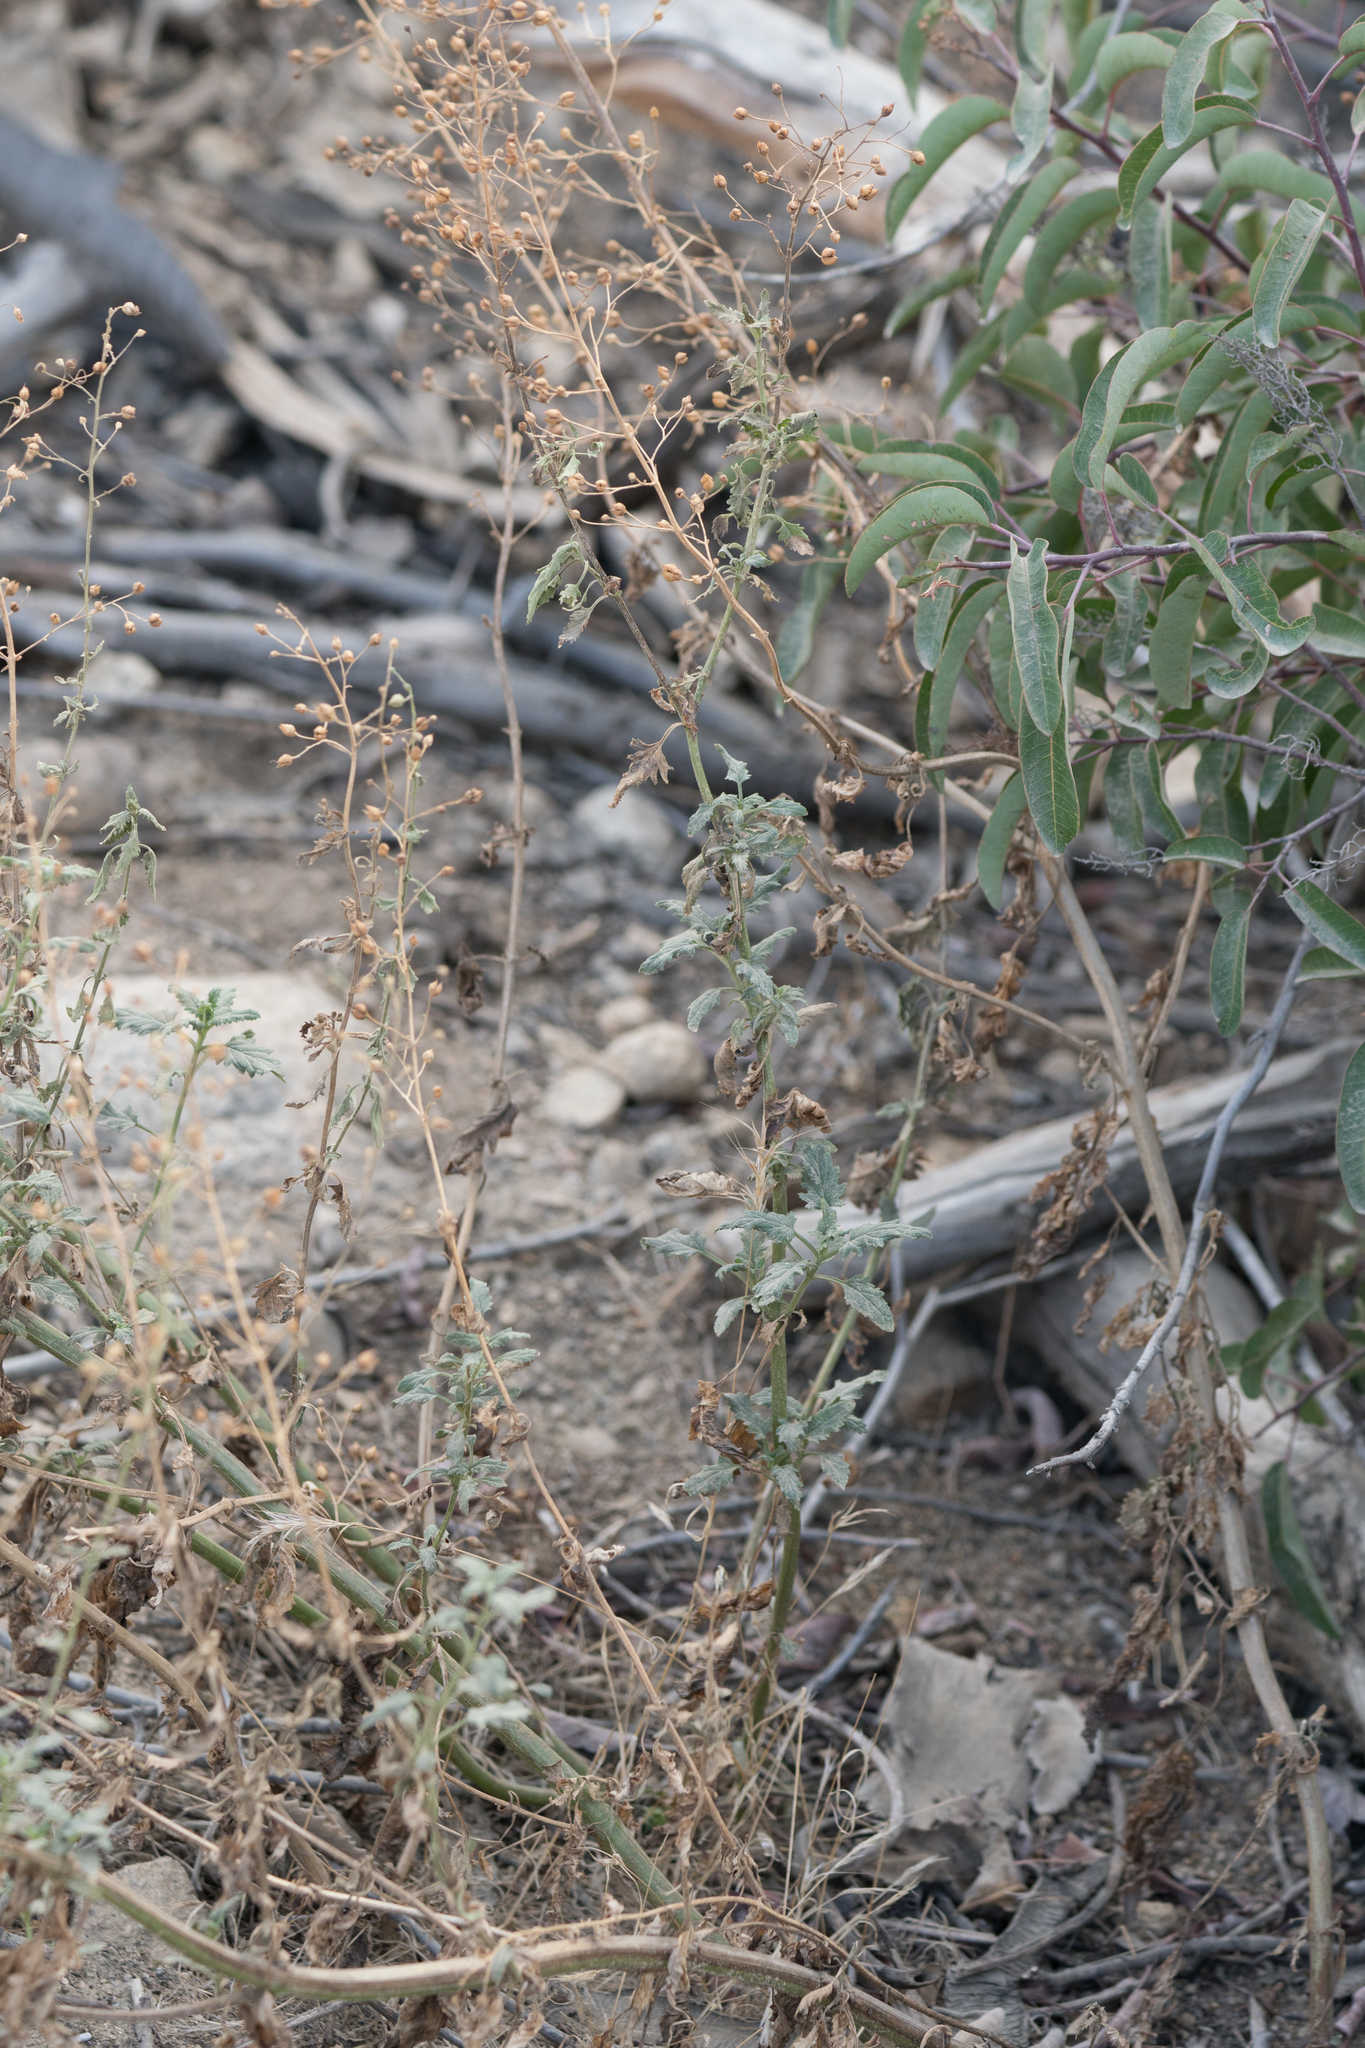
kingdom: Plantae
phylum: Tracheophyta
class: Magnoliopsida
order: Lamiales
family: Scrophulariaceae
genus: Scrophularia
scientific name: Scrophularia californica
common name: California figwort
